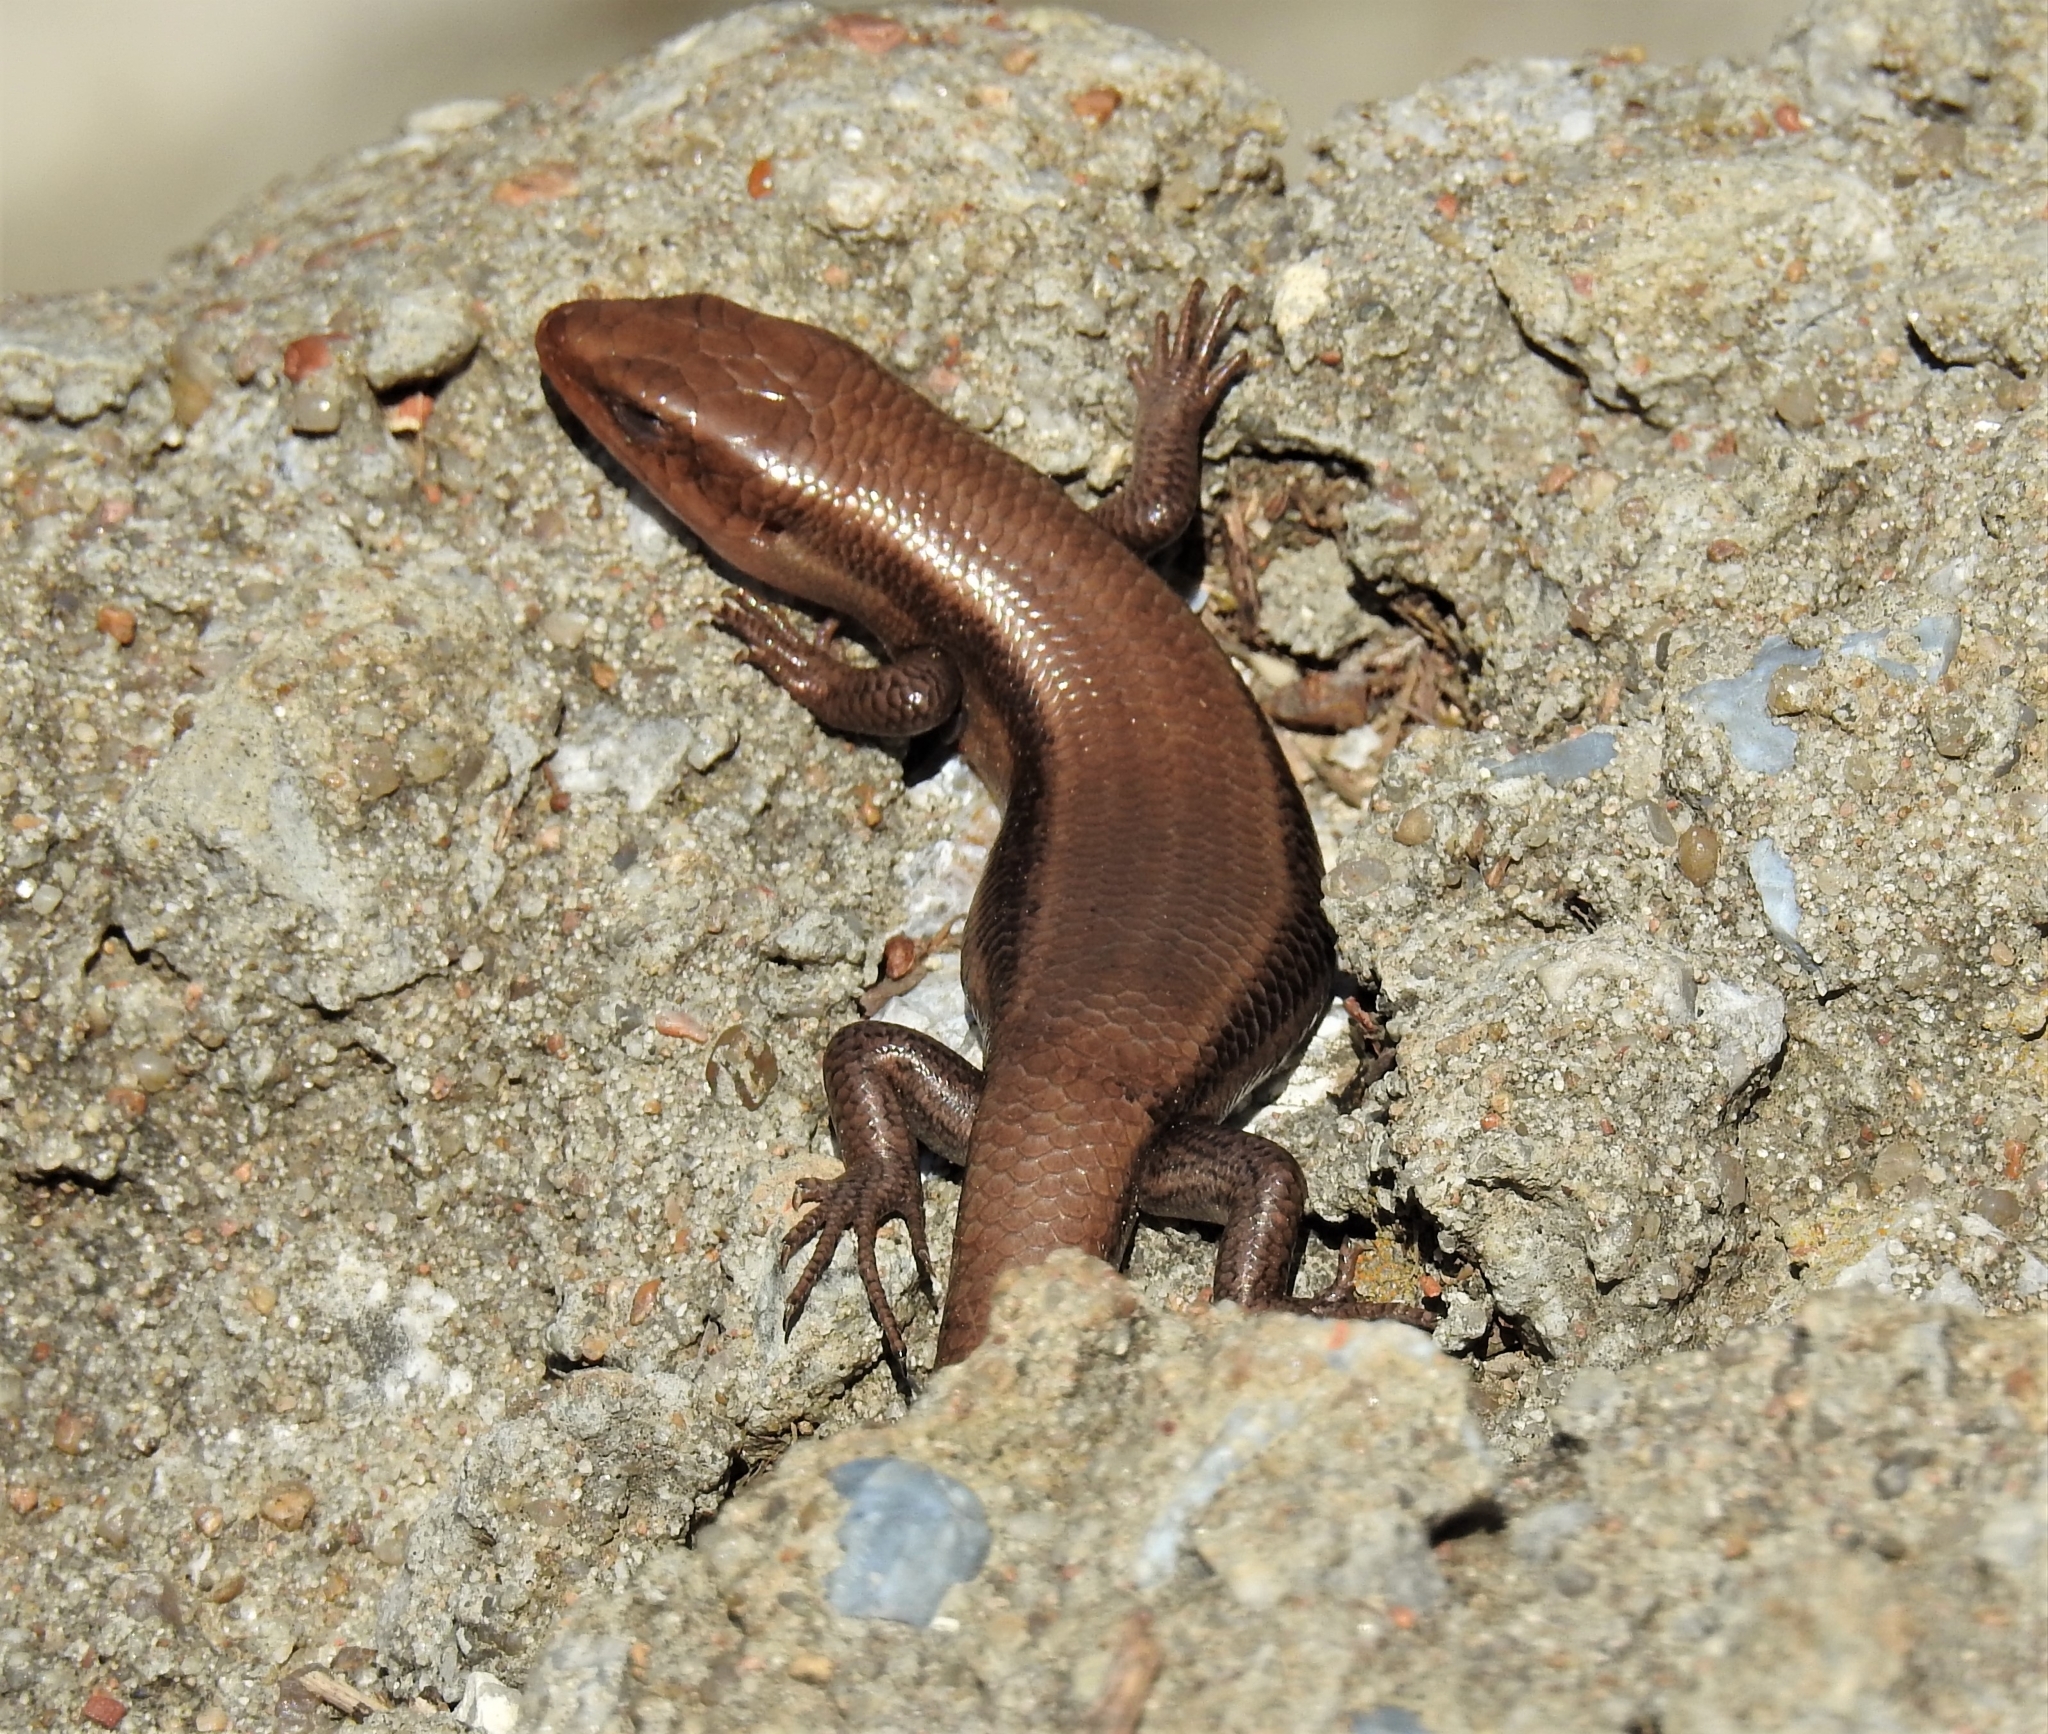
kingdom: Animalia
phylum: Chordata
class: Squamata
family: Scincidae
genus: Plestiodon
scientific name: Plestiodon fasciatus
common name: Five-lined skink
